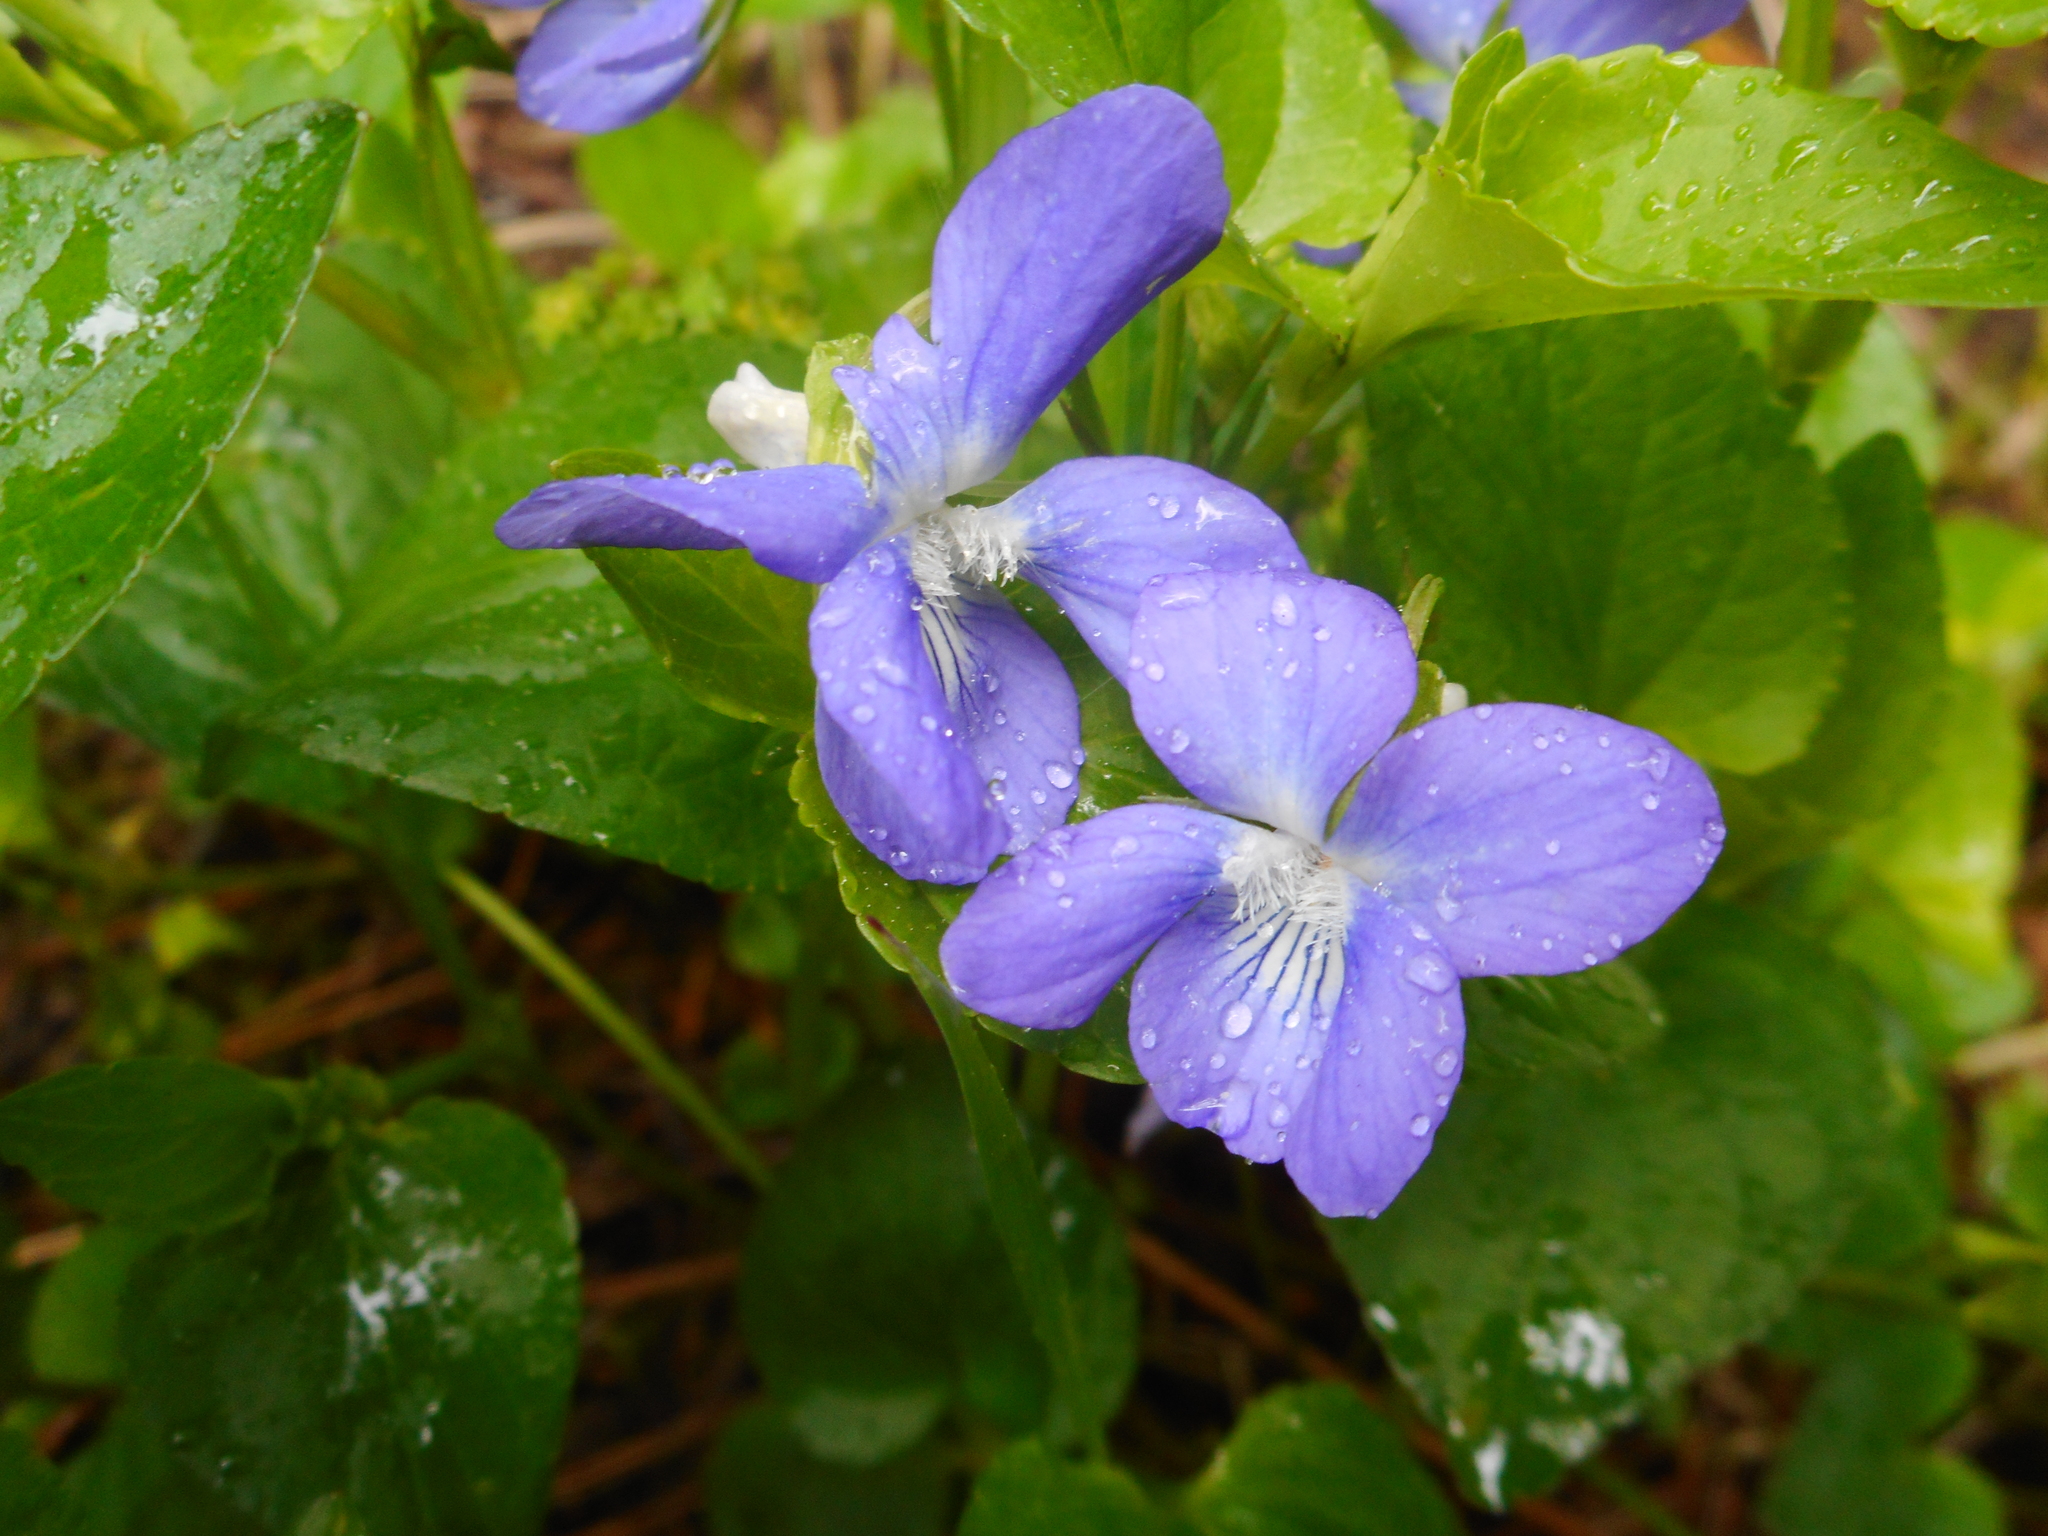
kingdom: Plantae
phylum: Tracheophyta
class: Magnoliopsida
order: Malpighiales
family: Violaceae
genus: Viola
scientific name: Viola riviniana
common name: Common dog-violet
